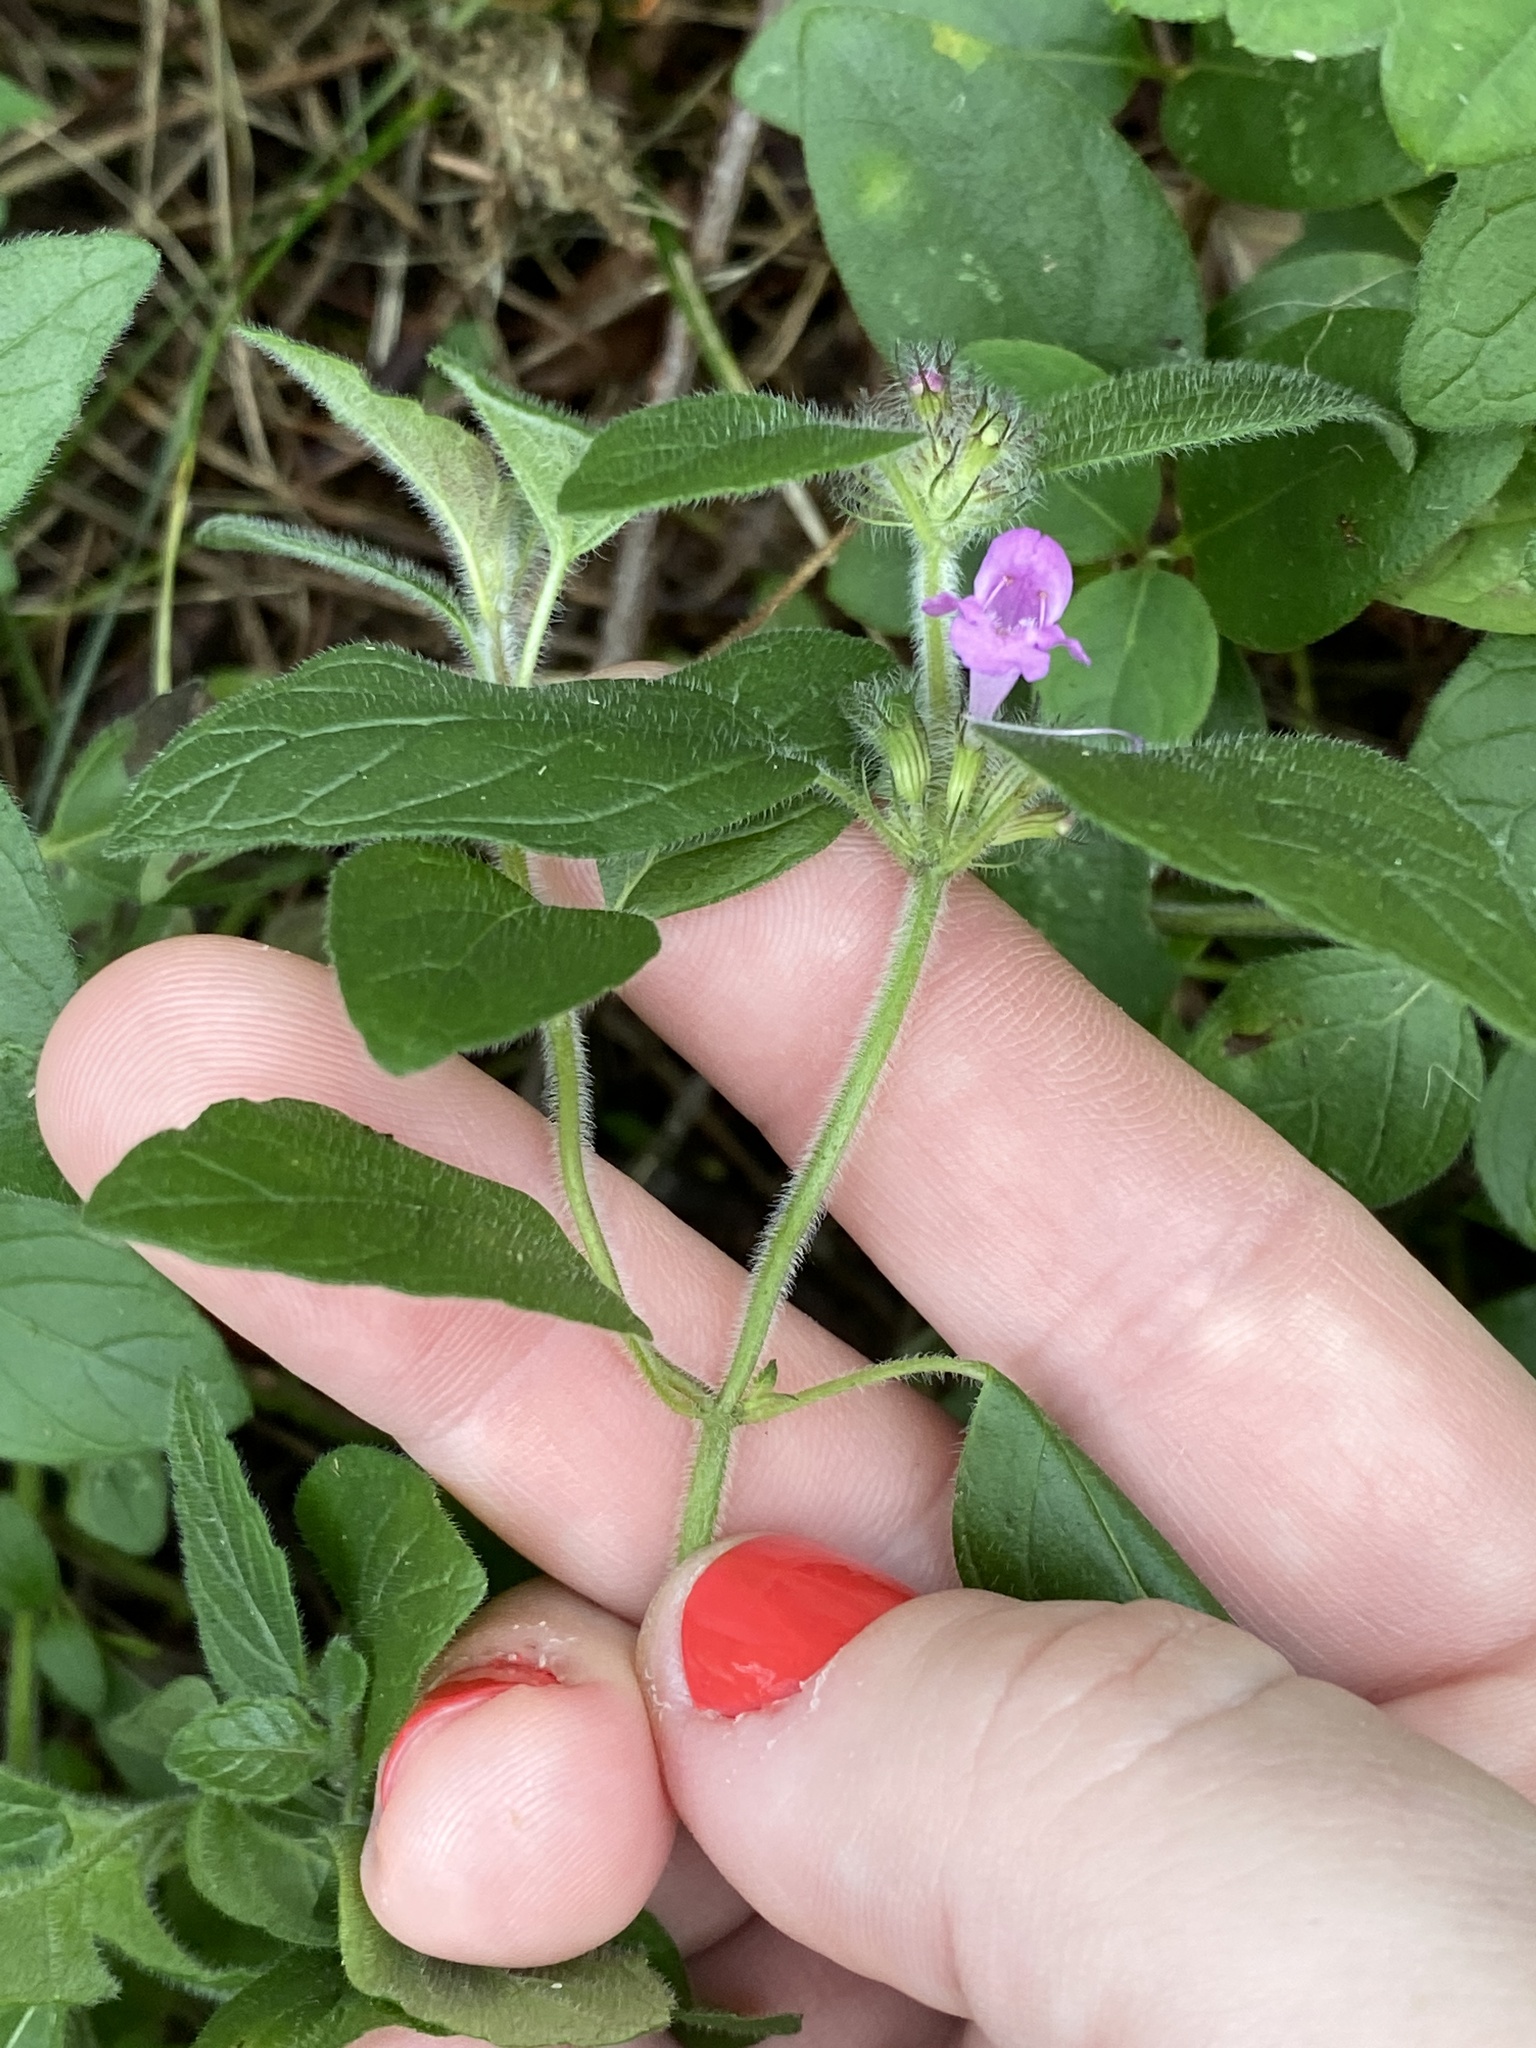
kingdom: Plantae
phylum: Tracheophyta
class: Magnoliopsida
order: Lamiales
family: Lamiaceae
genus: Clinopodium
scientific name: Clinopodium vulgare
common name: Wild basil
